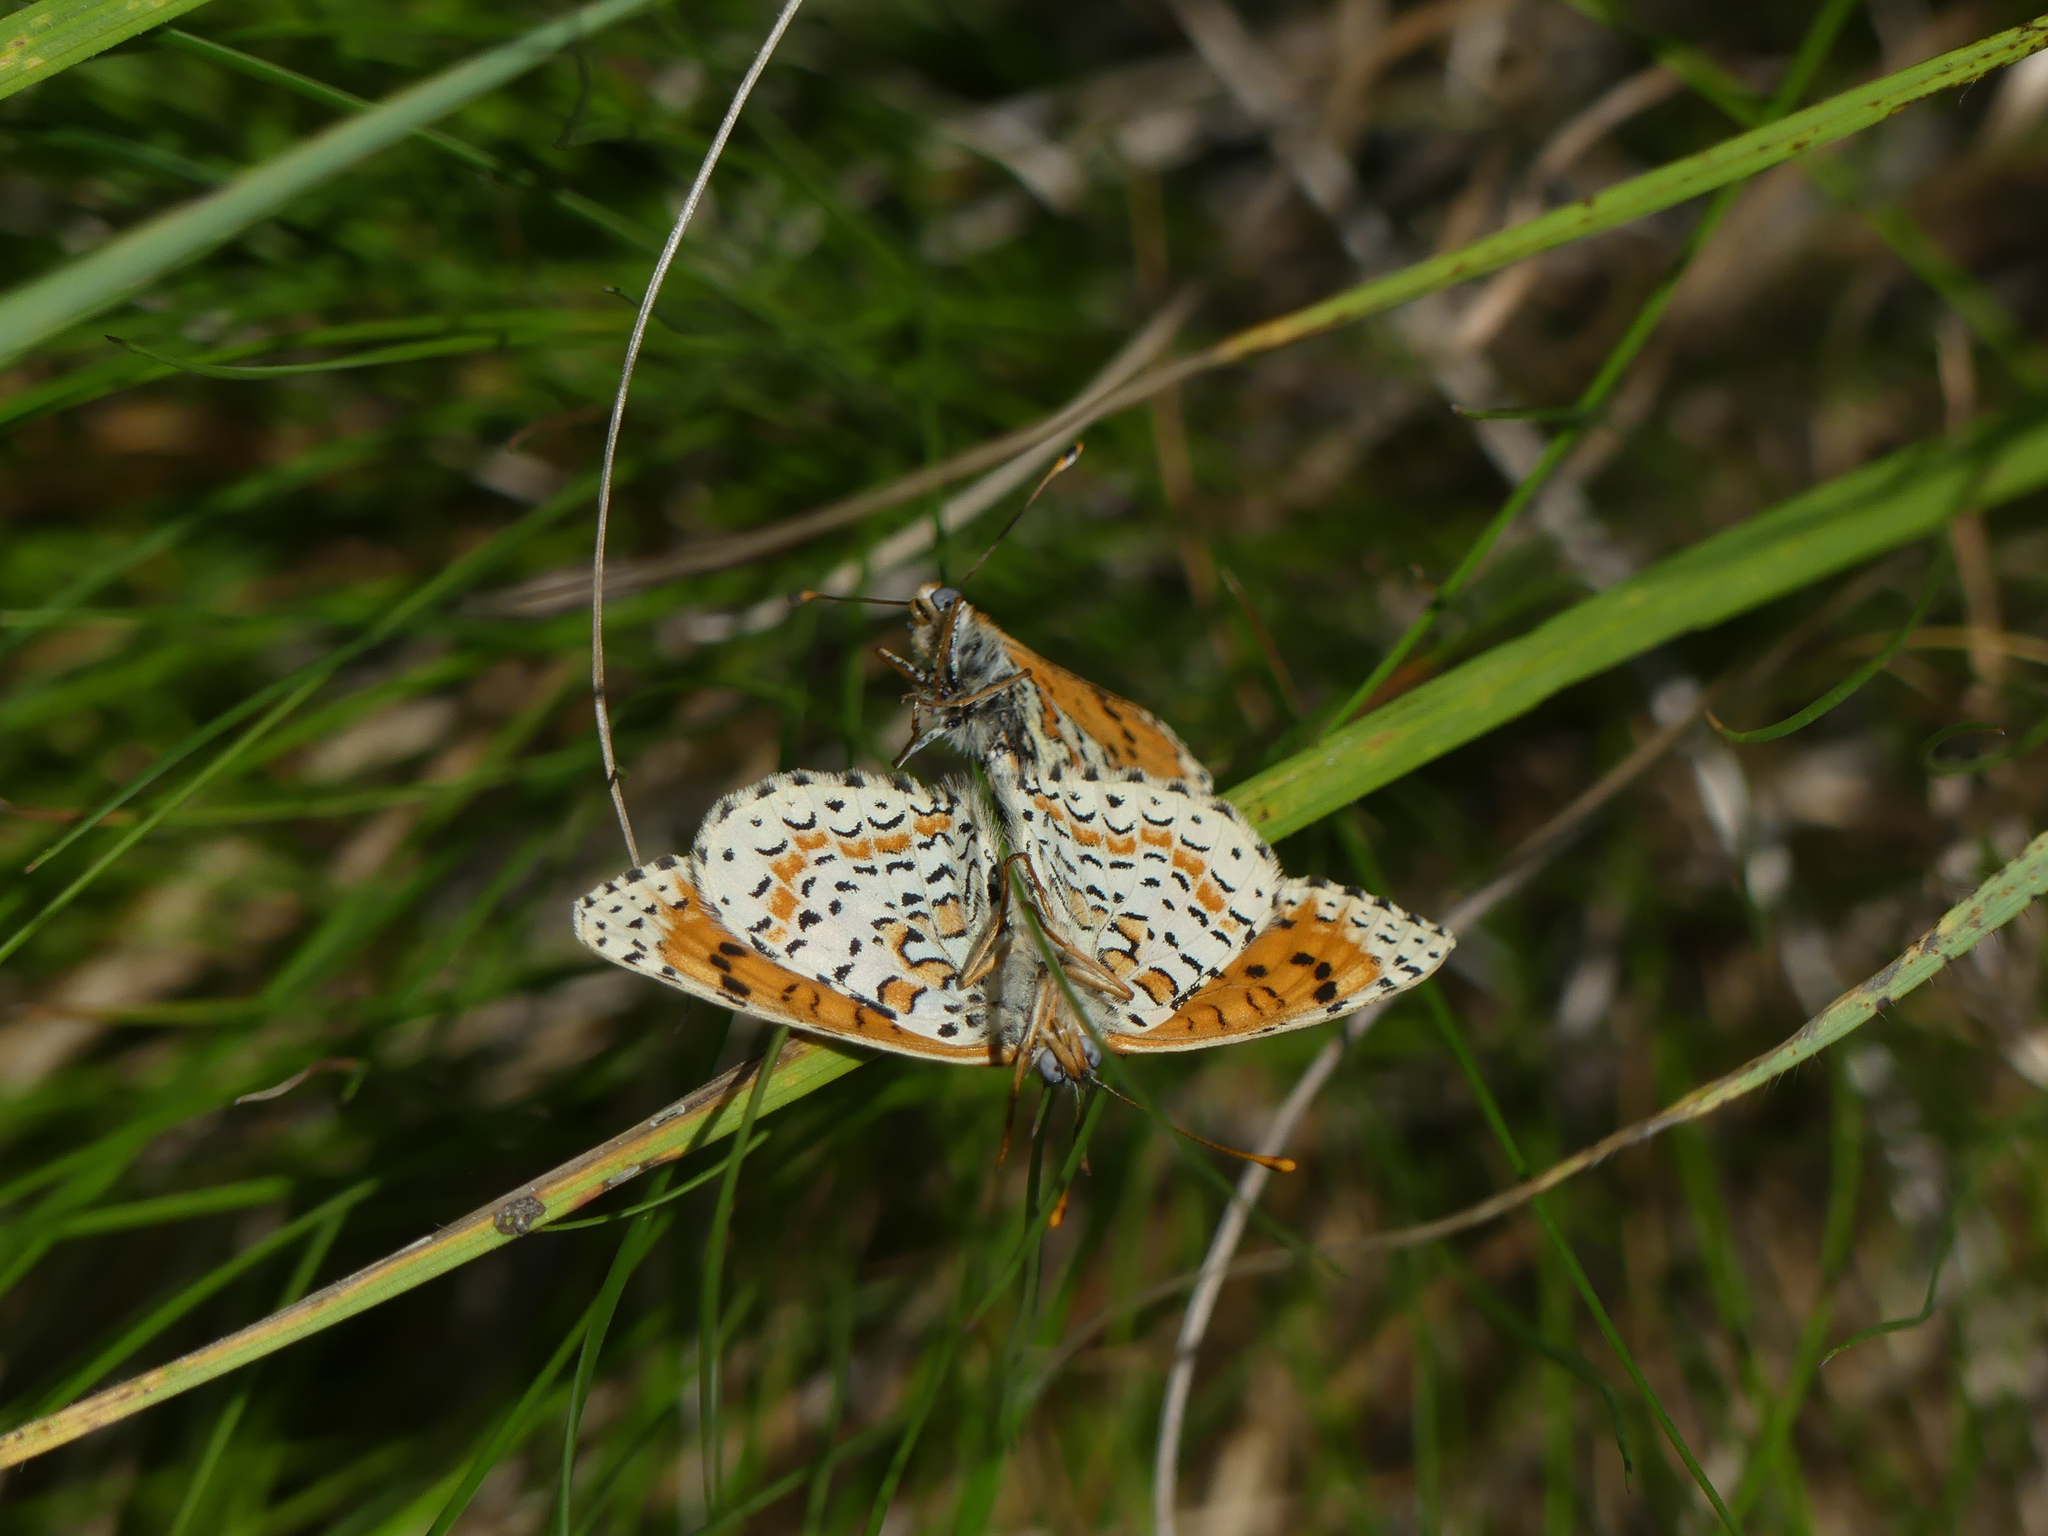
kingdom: Animalia
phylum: Arthropoda
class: Insecta
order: Lepidoptera
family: Nymphalidae
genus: Melitaea
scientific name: Melitaea didyma
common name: Spotted fritillary
